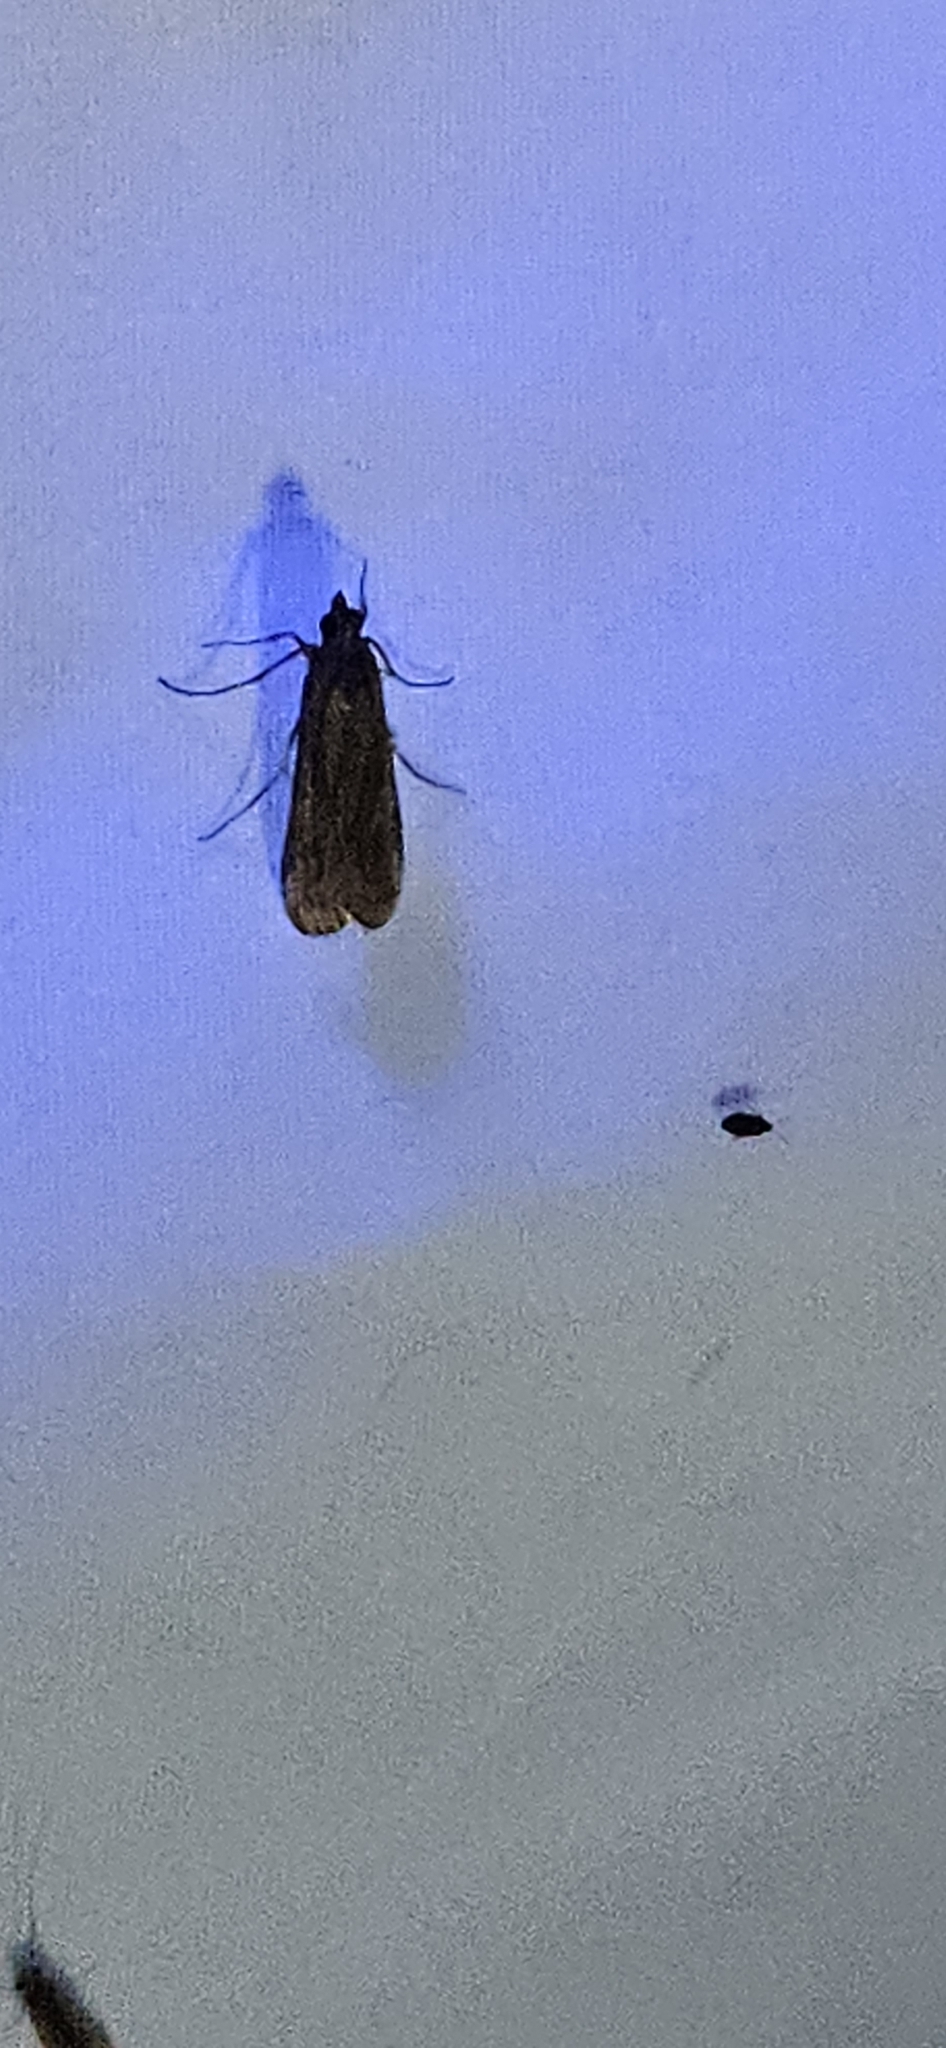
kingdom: Animalia
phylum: Arthropoda
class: Insecta
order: Lepidoptera
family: Crambidae
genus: Nomophila
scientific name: Nomophila nearctica
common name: American rush veneer
